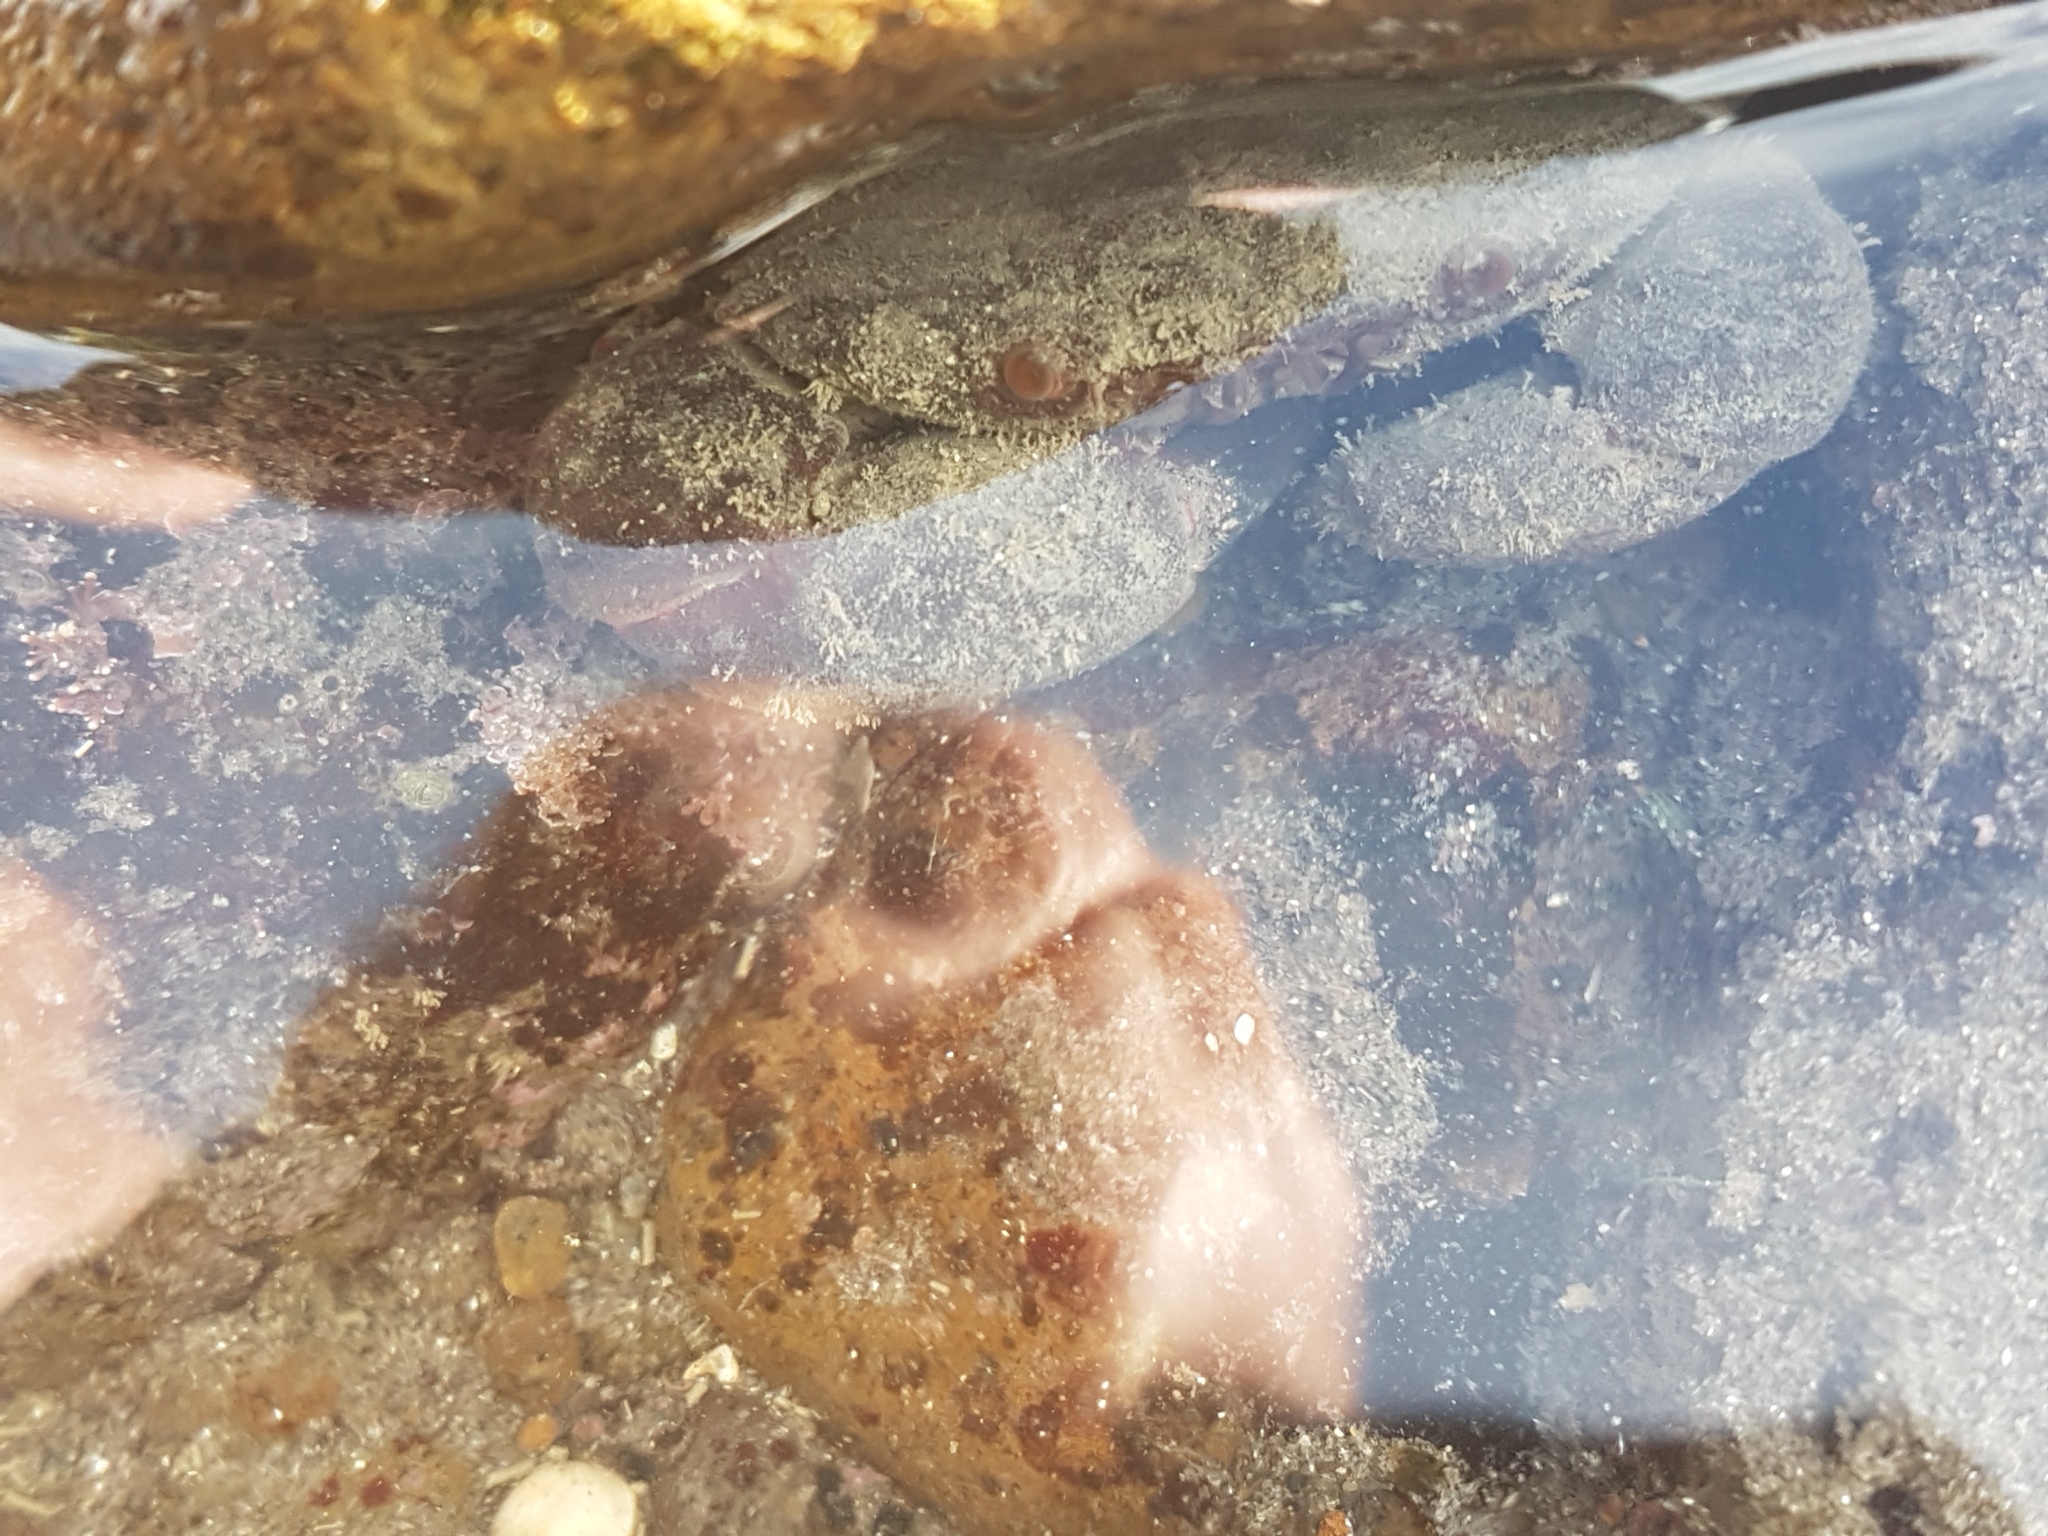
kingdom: Animalia
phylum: Arthropoda
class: Malacostraca
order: Decapoda
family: Oziidae
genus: Ozius
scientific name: Ozius deplanatus
